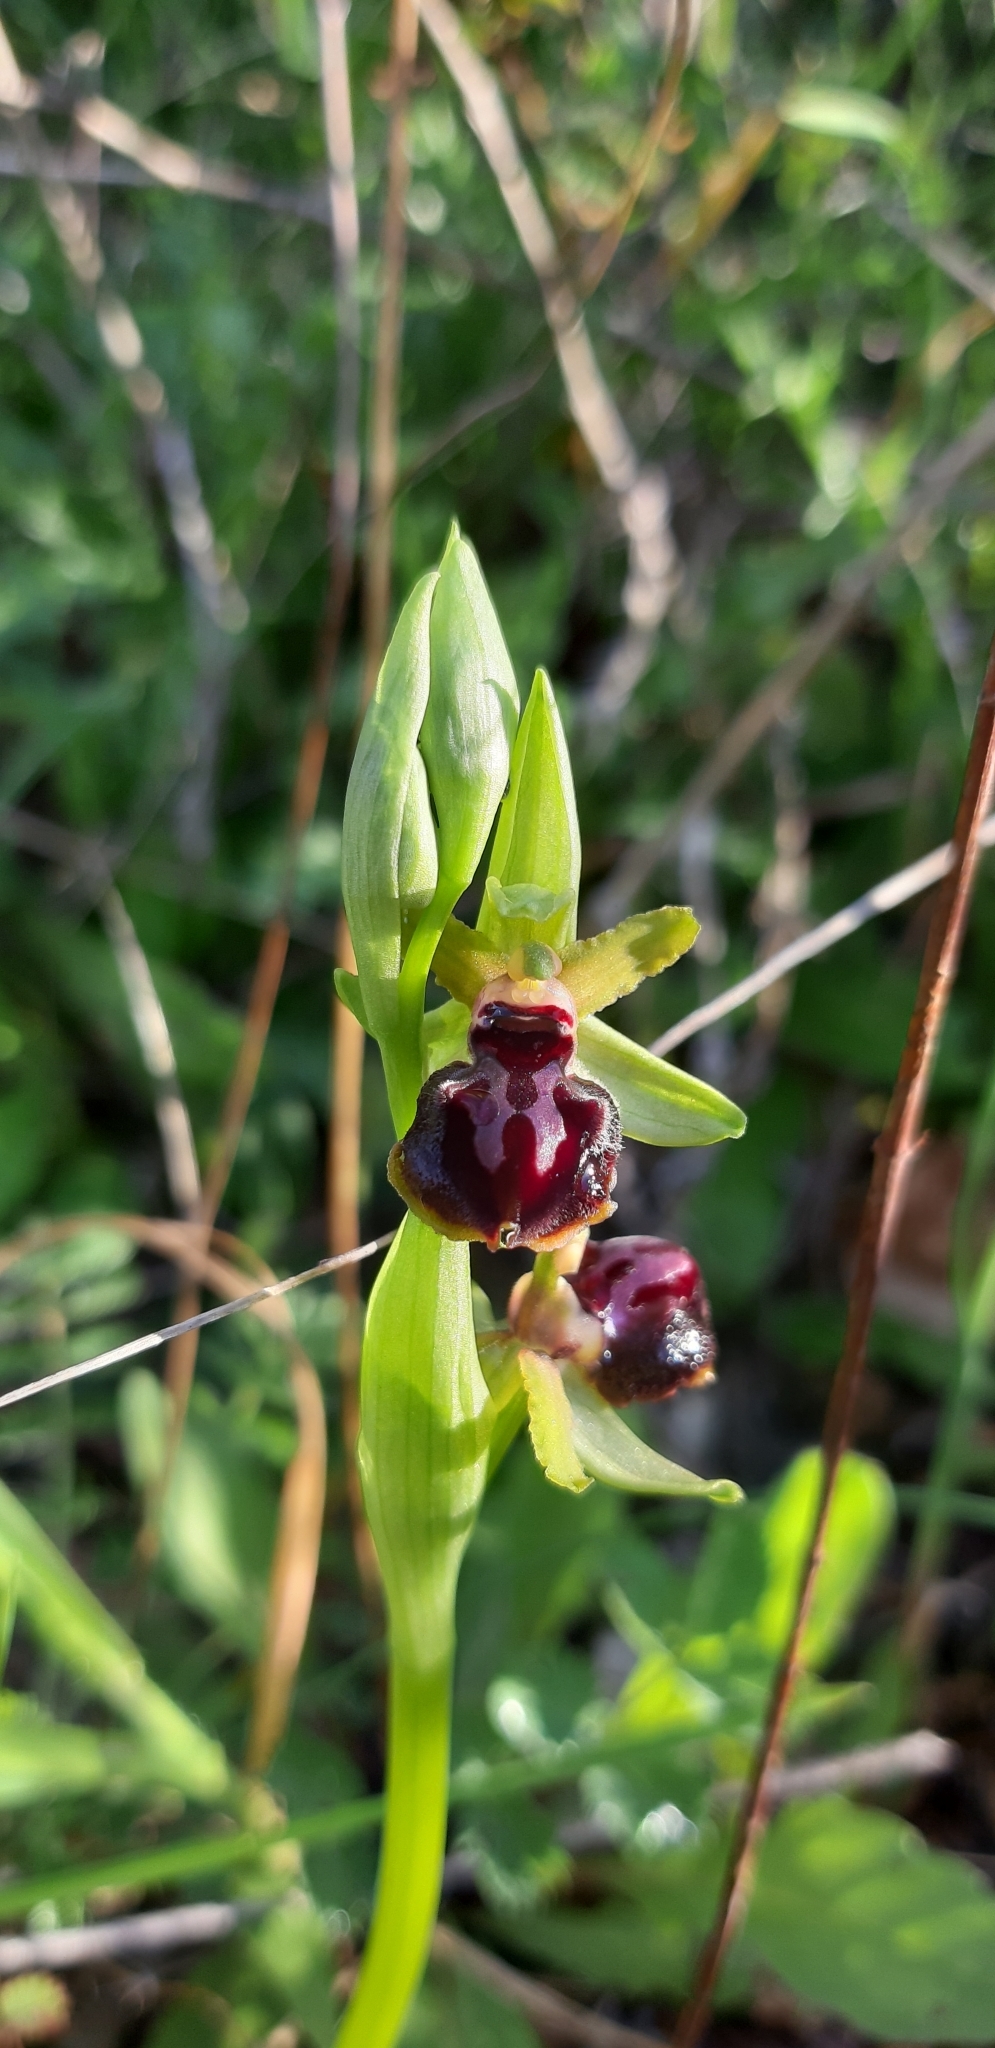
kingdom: Plantae
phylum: Tracheophyta
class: Liliopsida
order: Asparagales
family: Orchidaceae
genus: Ophrys
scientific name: Ophrys sphegodes
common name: Early spider-orchid
